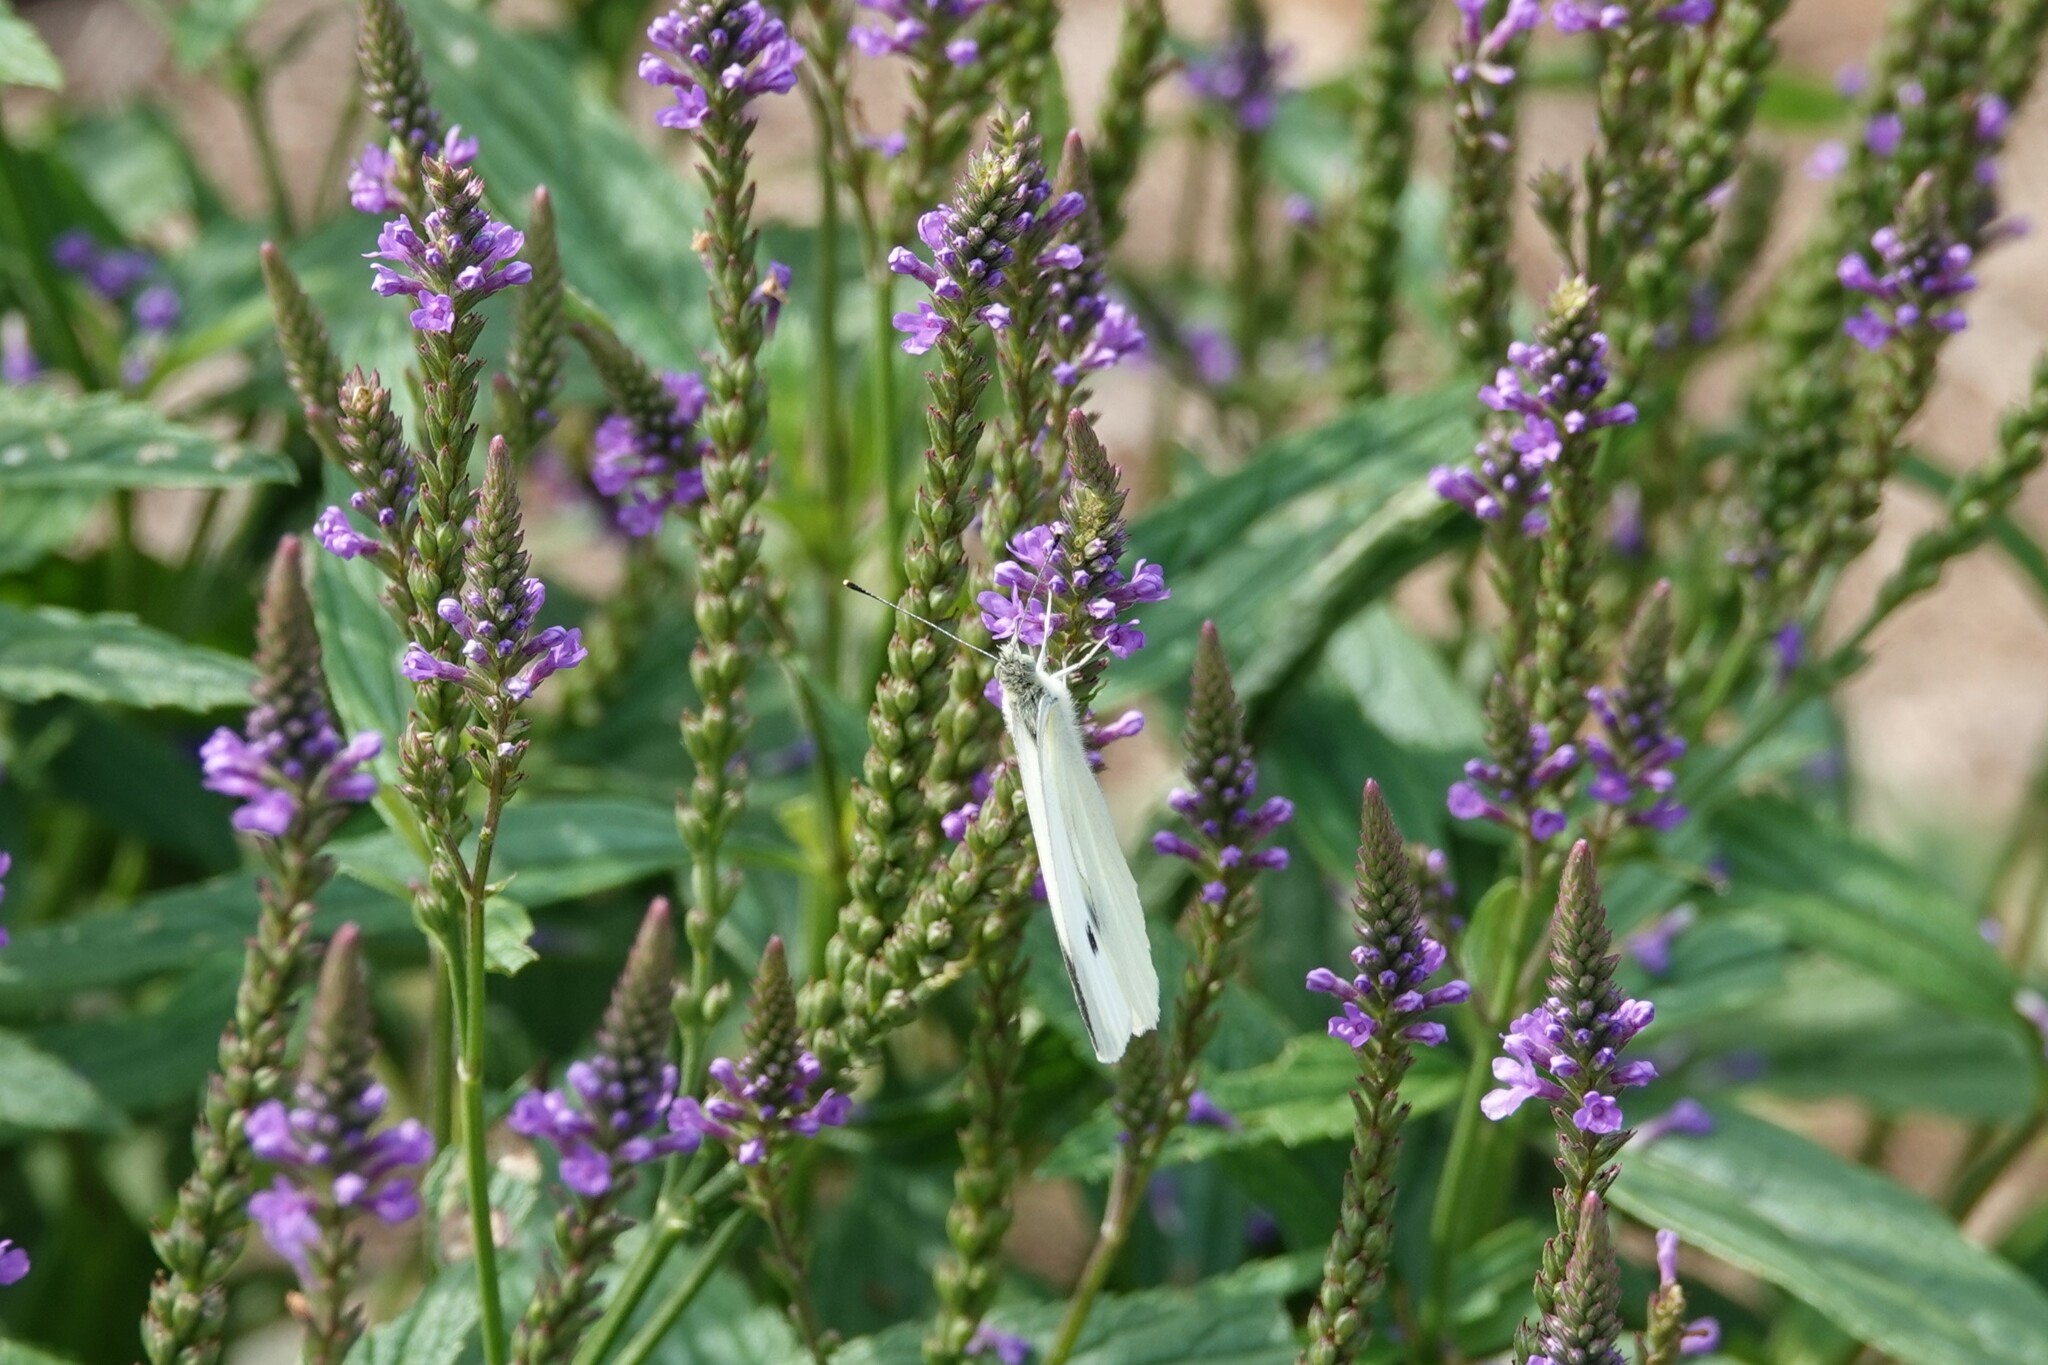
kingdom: Animalia
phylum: Arthropoda
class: Insecta
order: Lepidoptera
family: Pieridae
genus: Pieris
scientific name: Pieris rapae
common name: Small white
